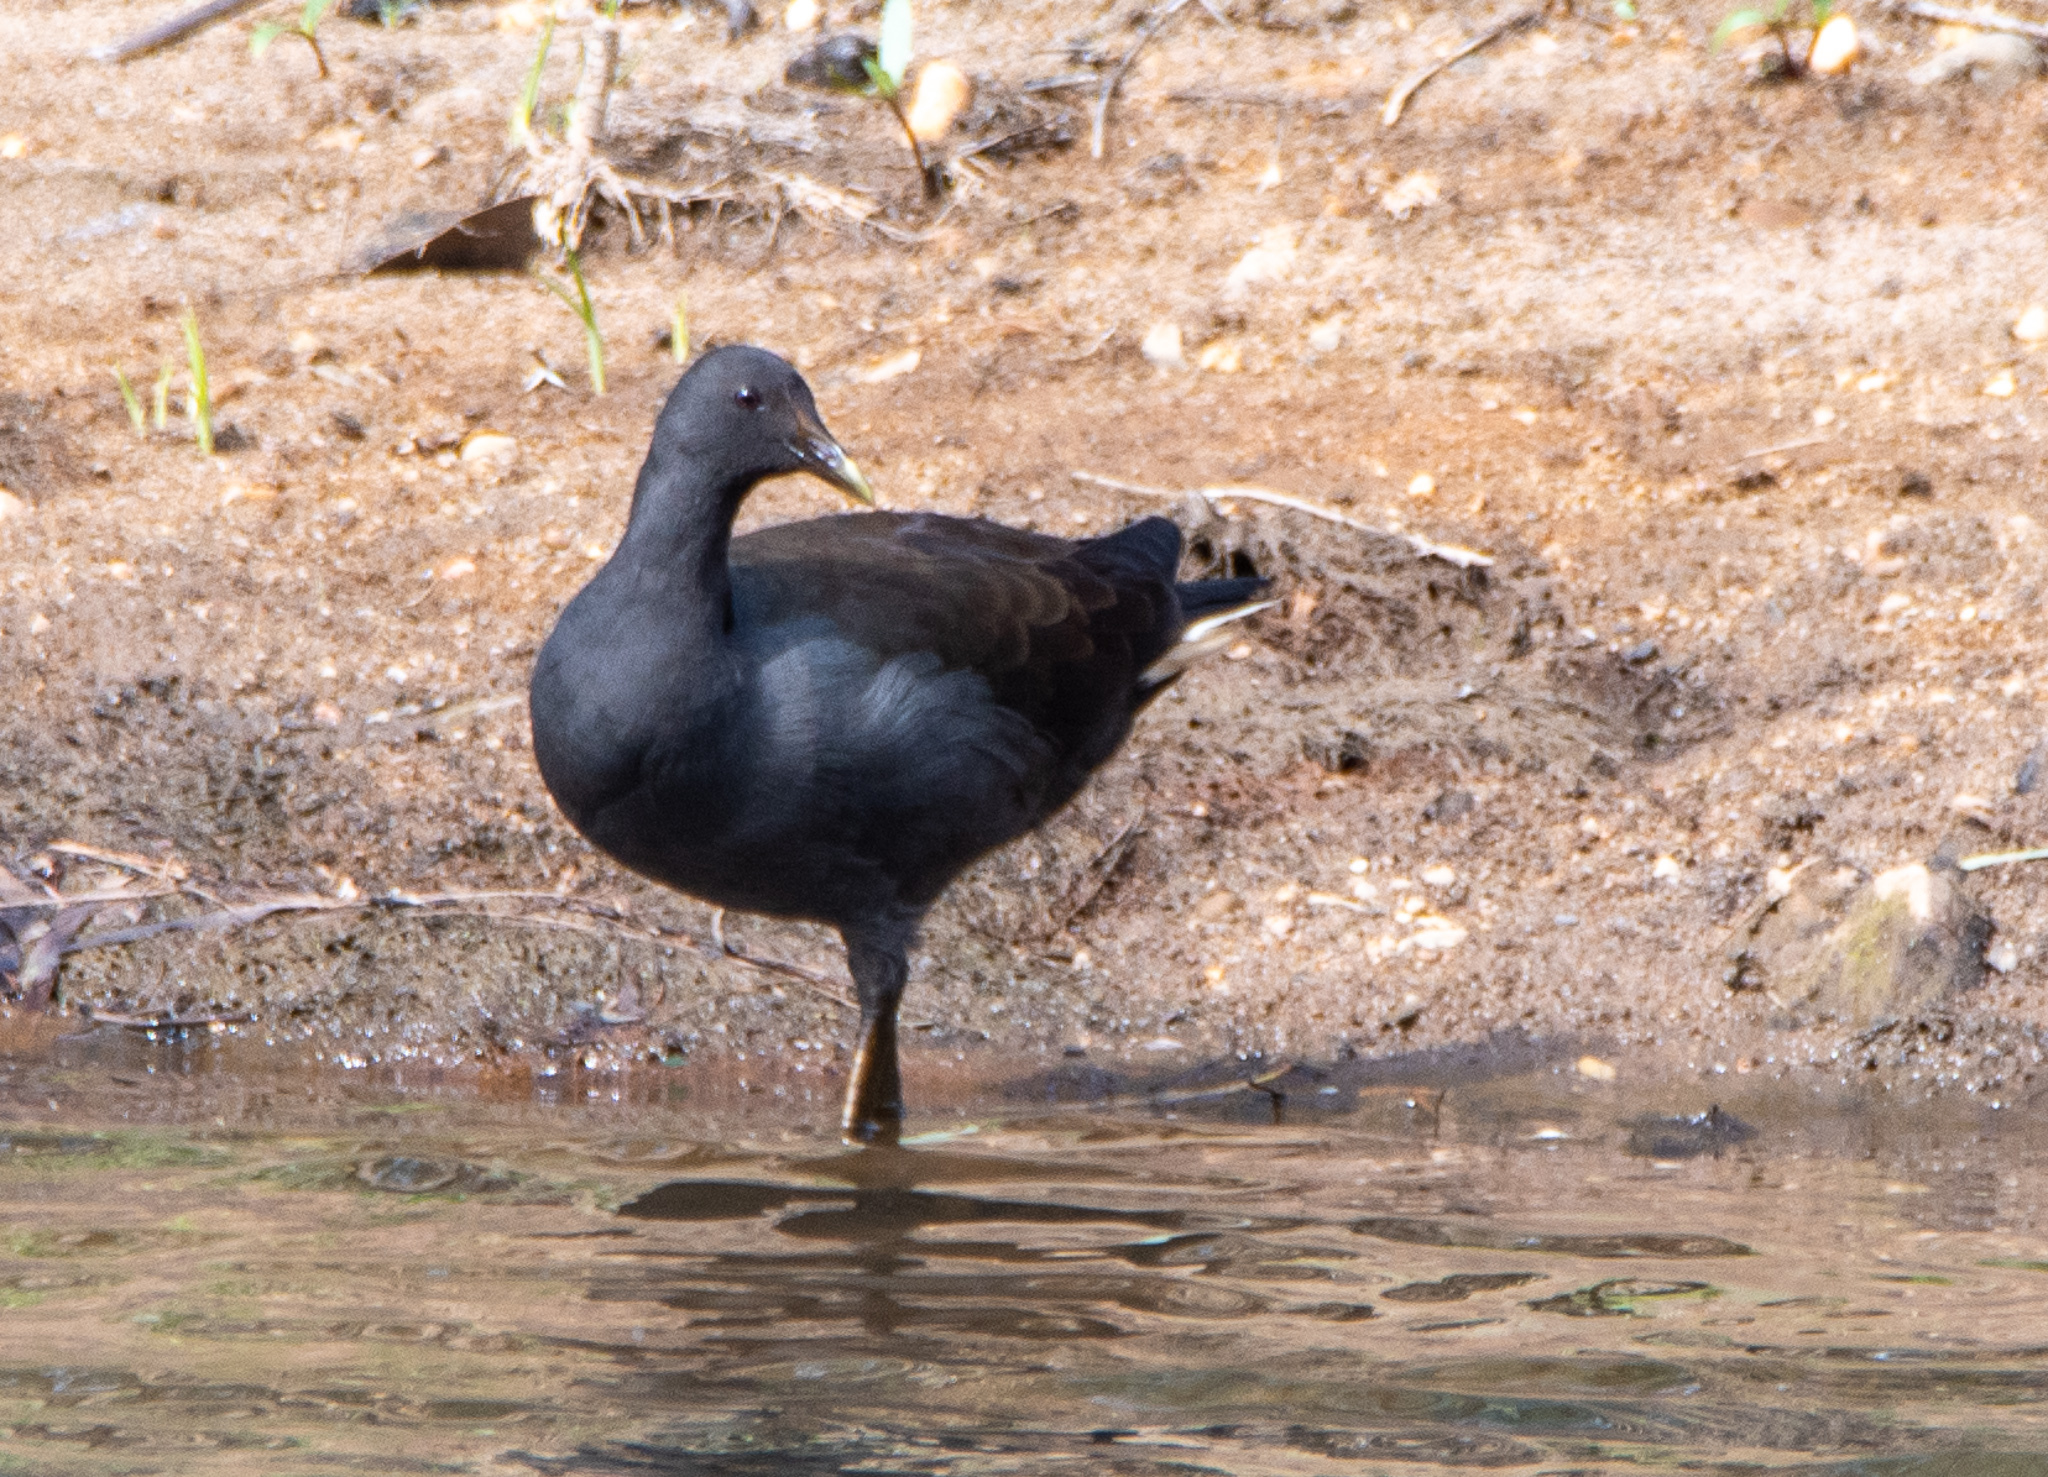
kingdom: Animalia
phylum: Chordata
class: Aves
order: Gruiformes
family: Rallidae
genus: Gallinula
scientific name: Gallinula tenebrosa
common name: Dusky moorhen
